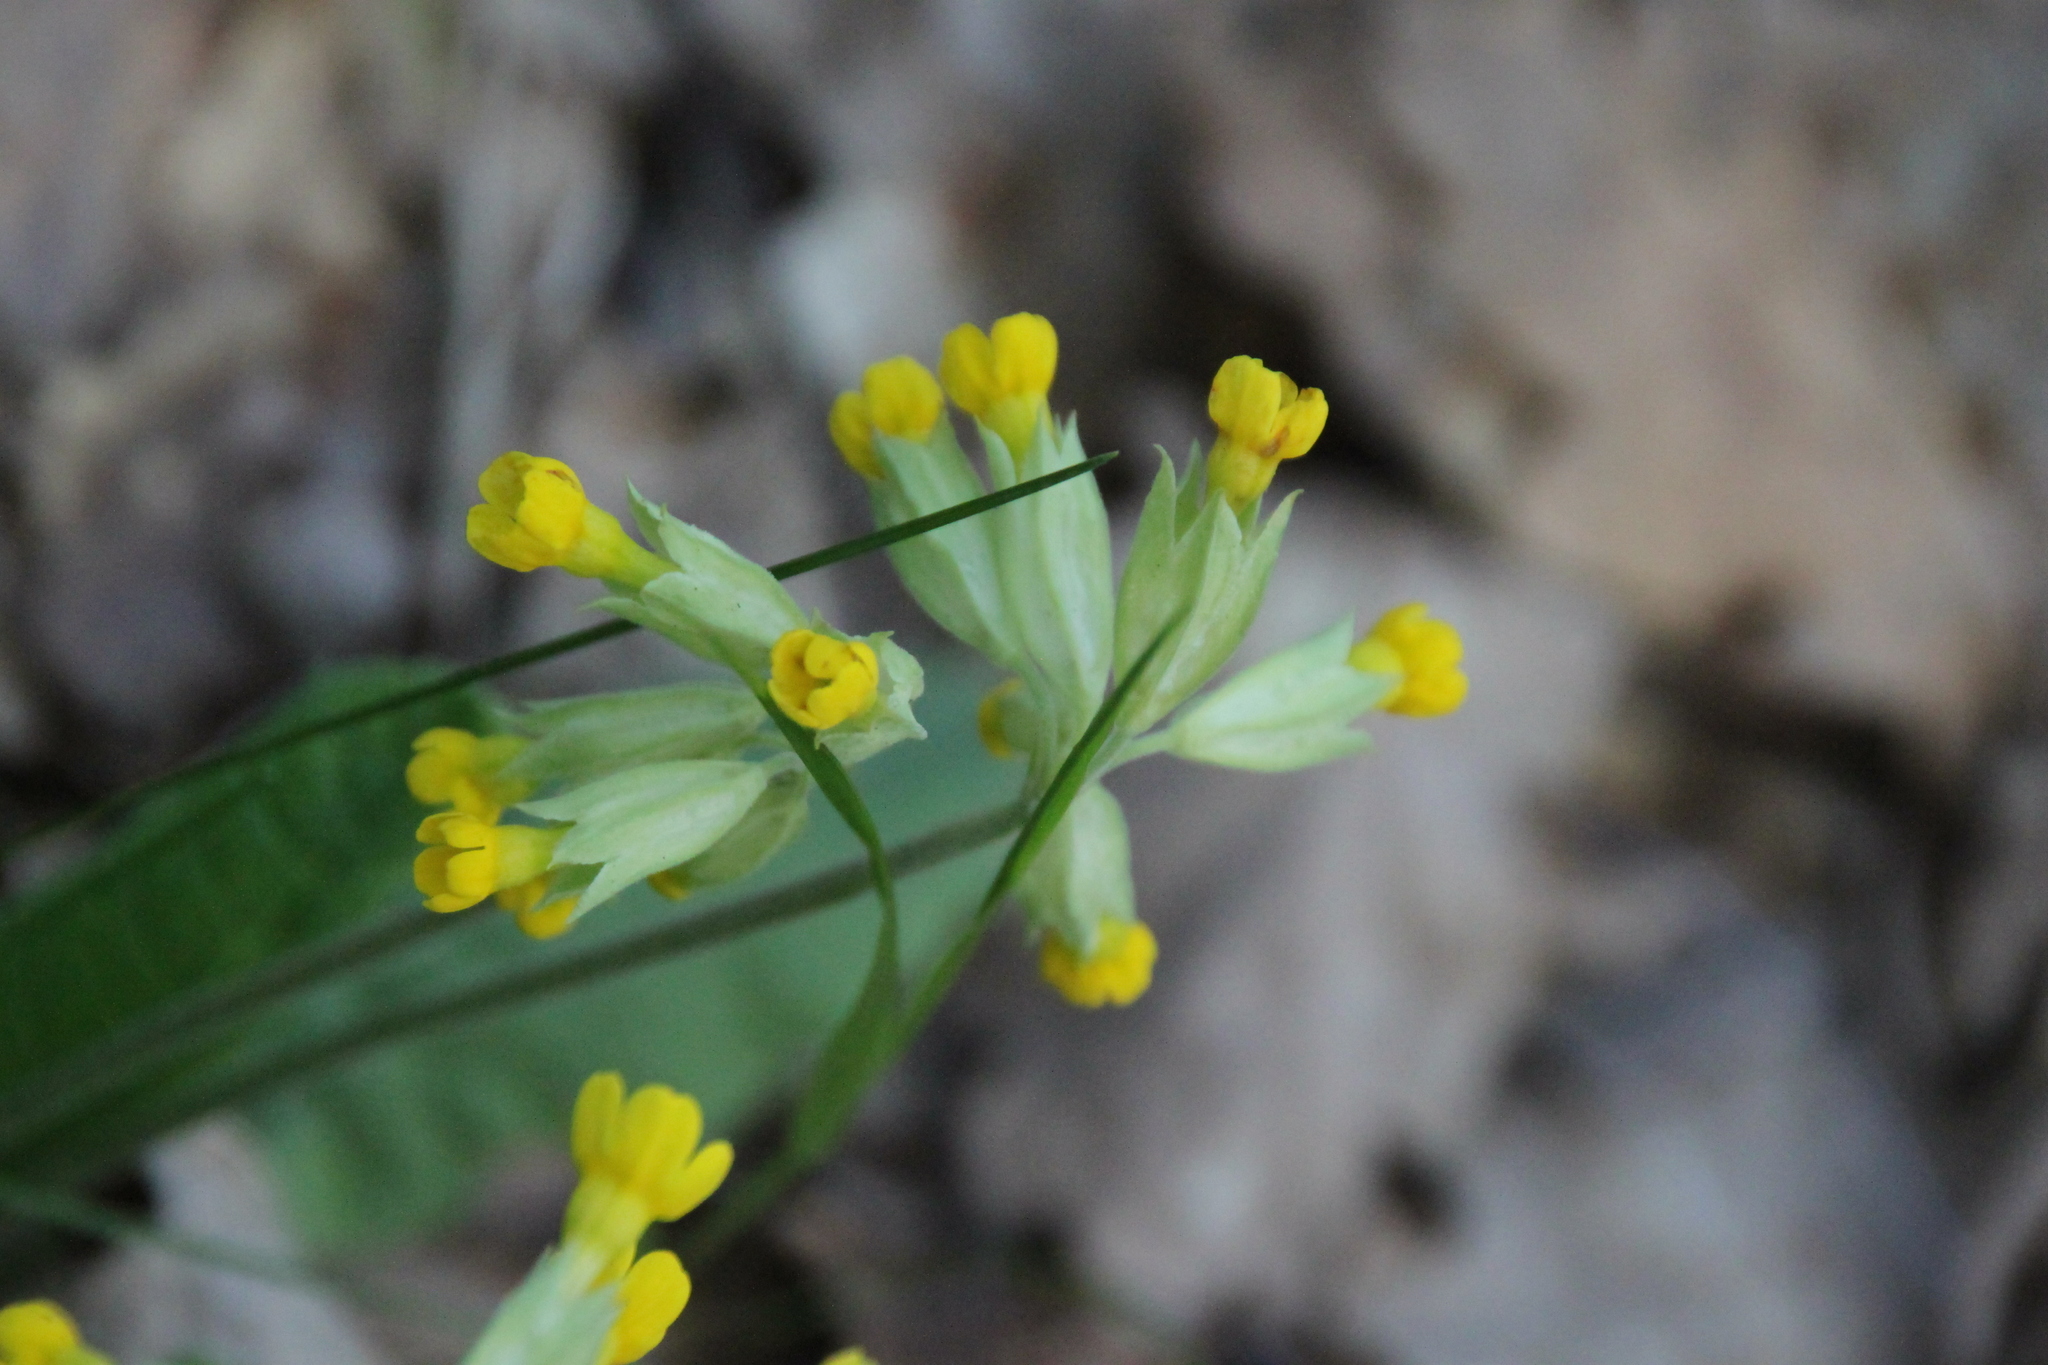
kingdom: Plantae
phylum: Tracheophyta
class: Magnoliopsida
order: Ericales
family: Primulaceae
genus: Primula
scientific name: Primula veris
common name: Cowslip
